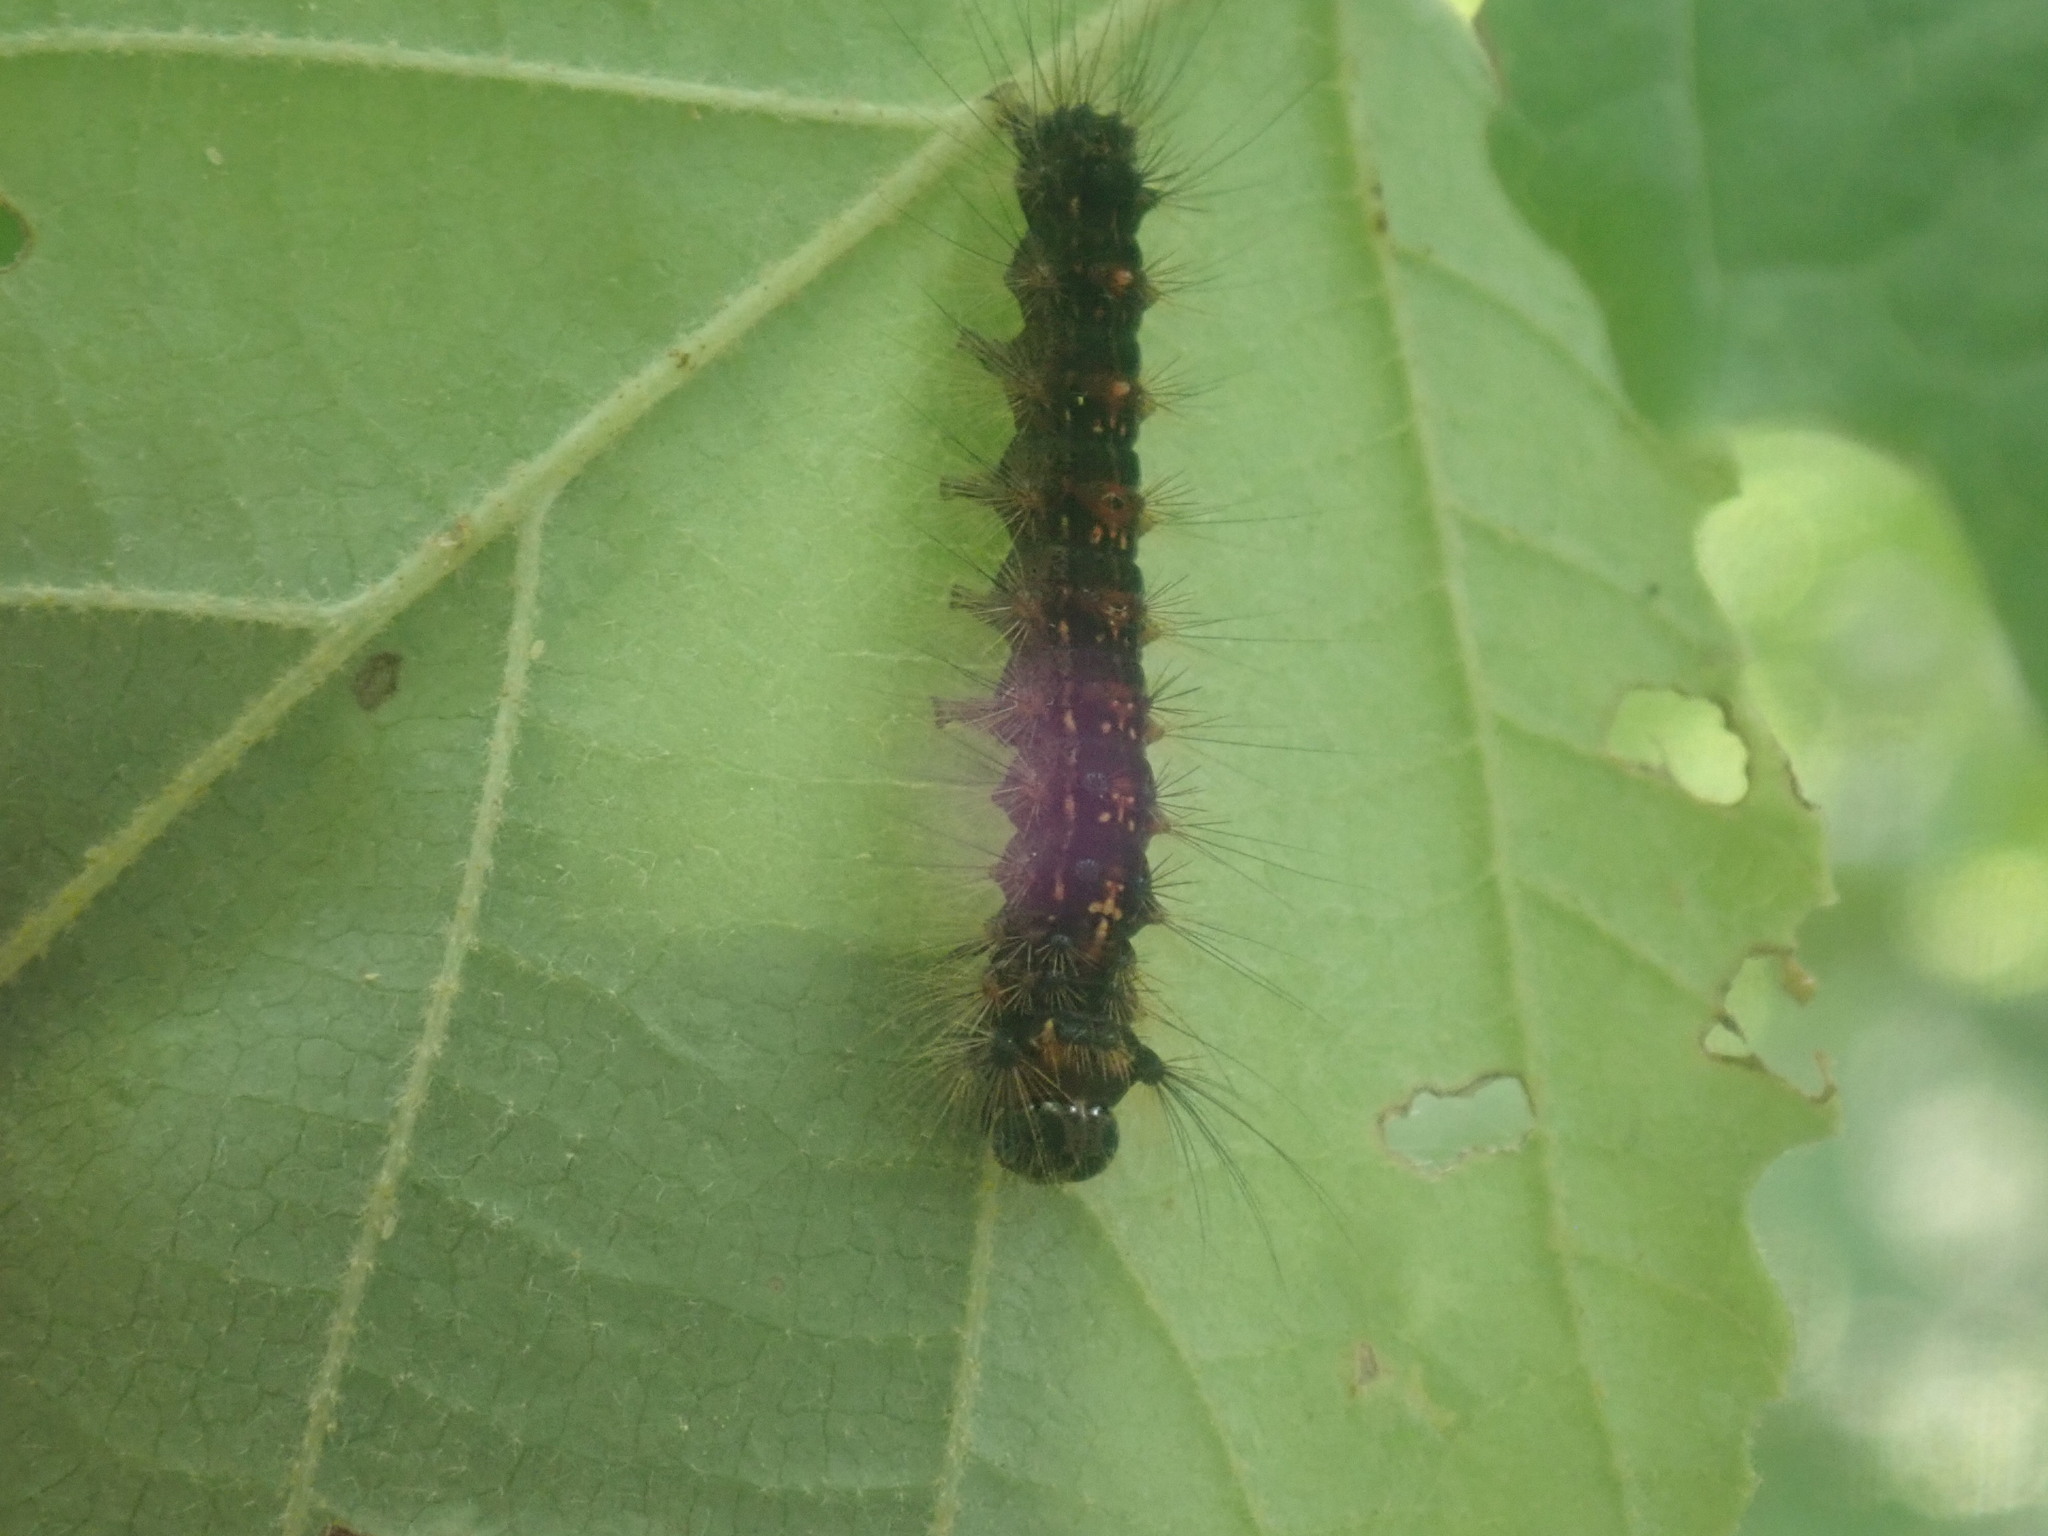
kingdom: Animalia
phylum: Arthropoda
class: Insecta
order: Lepidoptera
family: Erebidae
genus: Lymantria
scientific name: Lymantria dispar
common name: Gypsy moth
